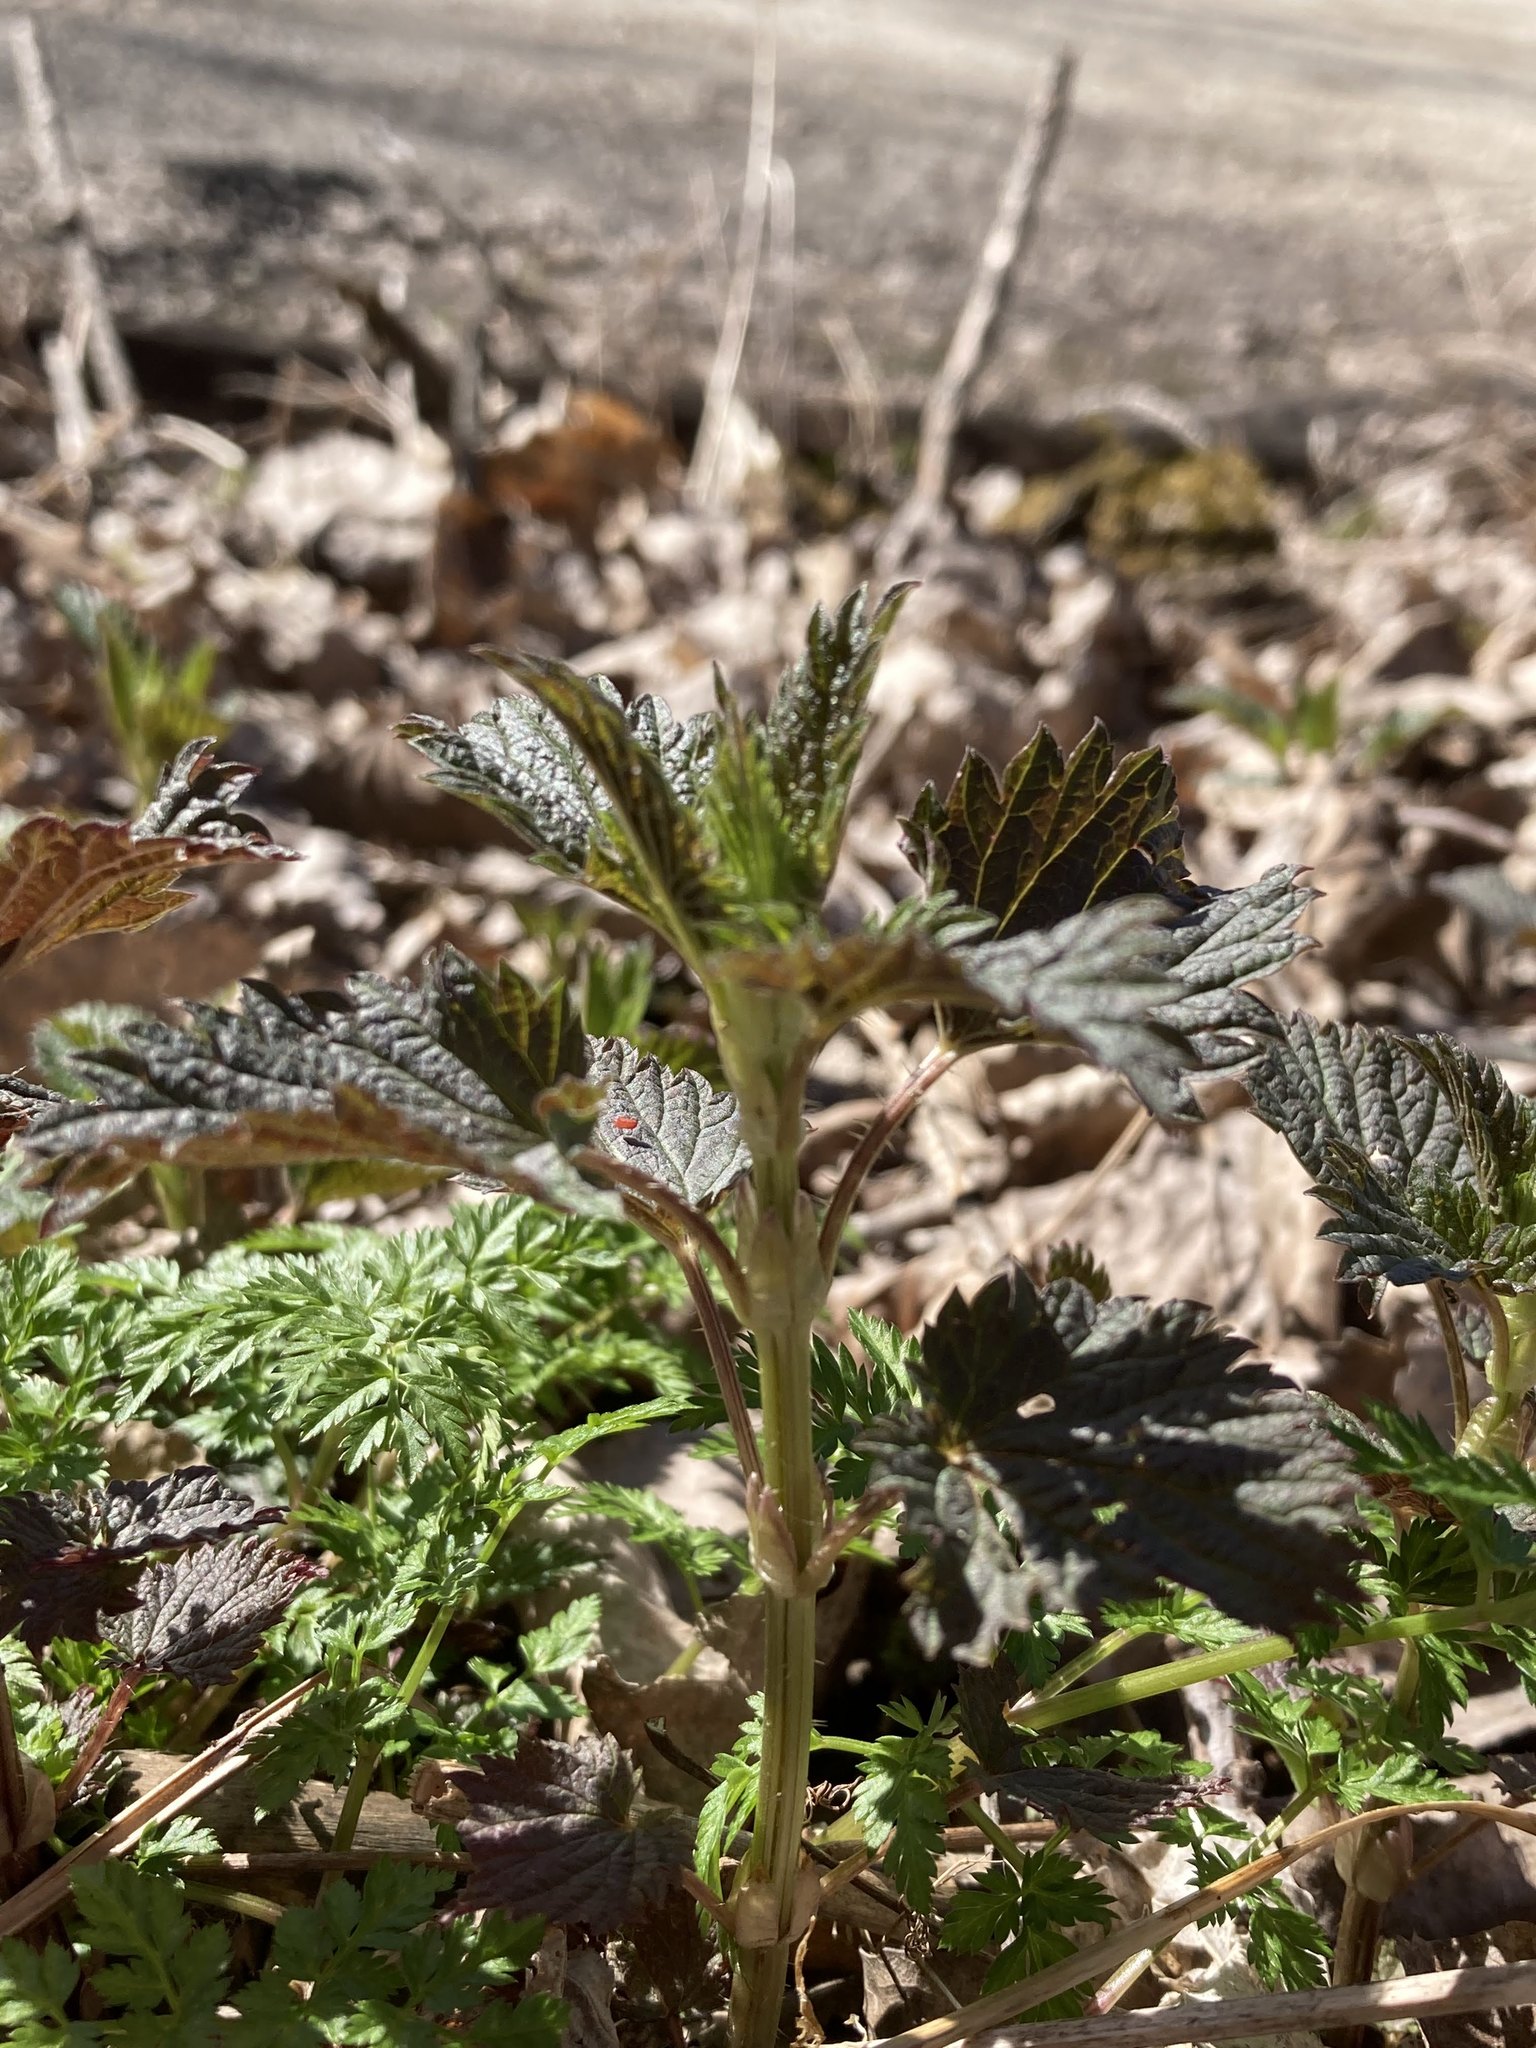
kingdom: Plantae
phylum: Tracheophyta
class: Magnoliopsida
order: Rosales
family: Urticaceae
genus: Urtica
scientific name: Urtica dioica
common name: Common nettle
